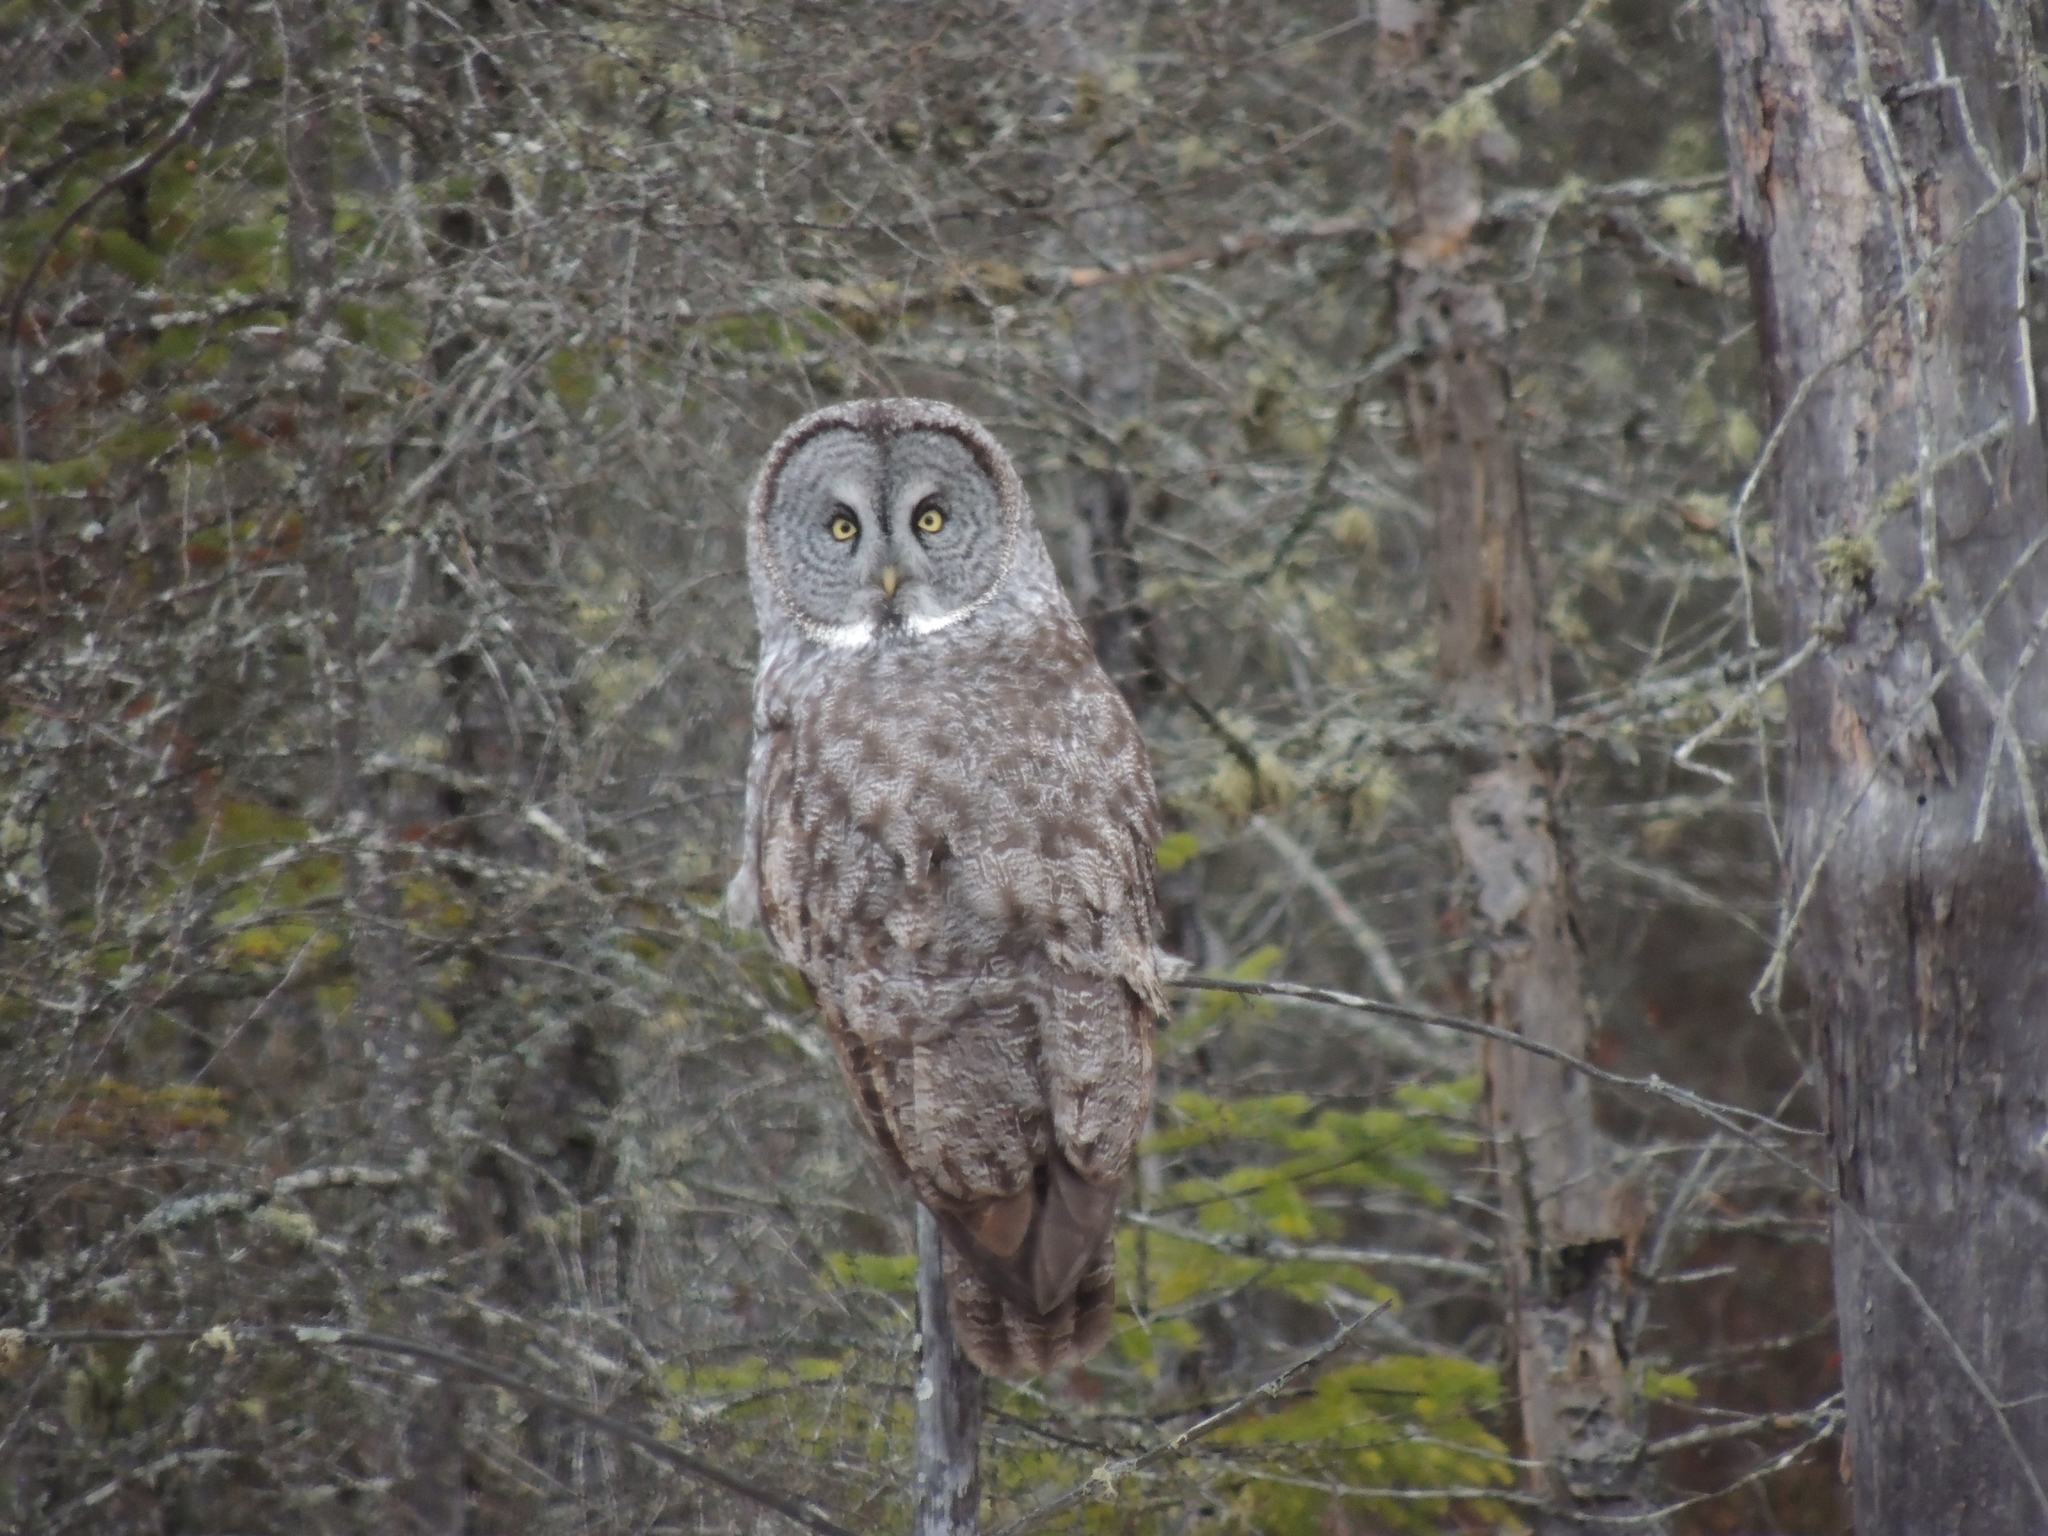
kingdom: Animalia
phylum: Chordata
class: Aves
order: Strigiformes
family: Strigidae
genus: Strix
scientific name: Strix nebulosa
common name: Great grey owl
